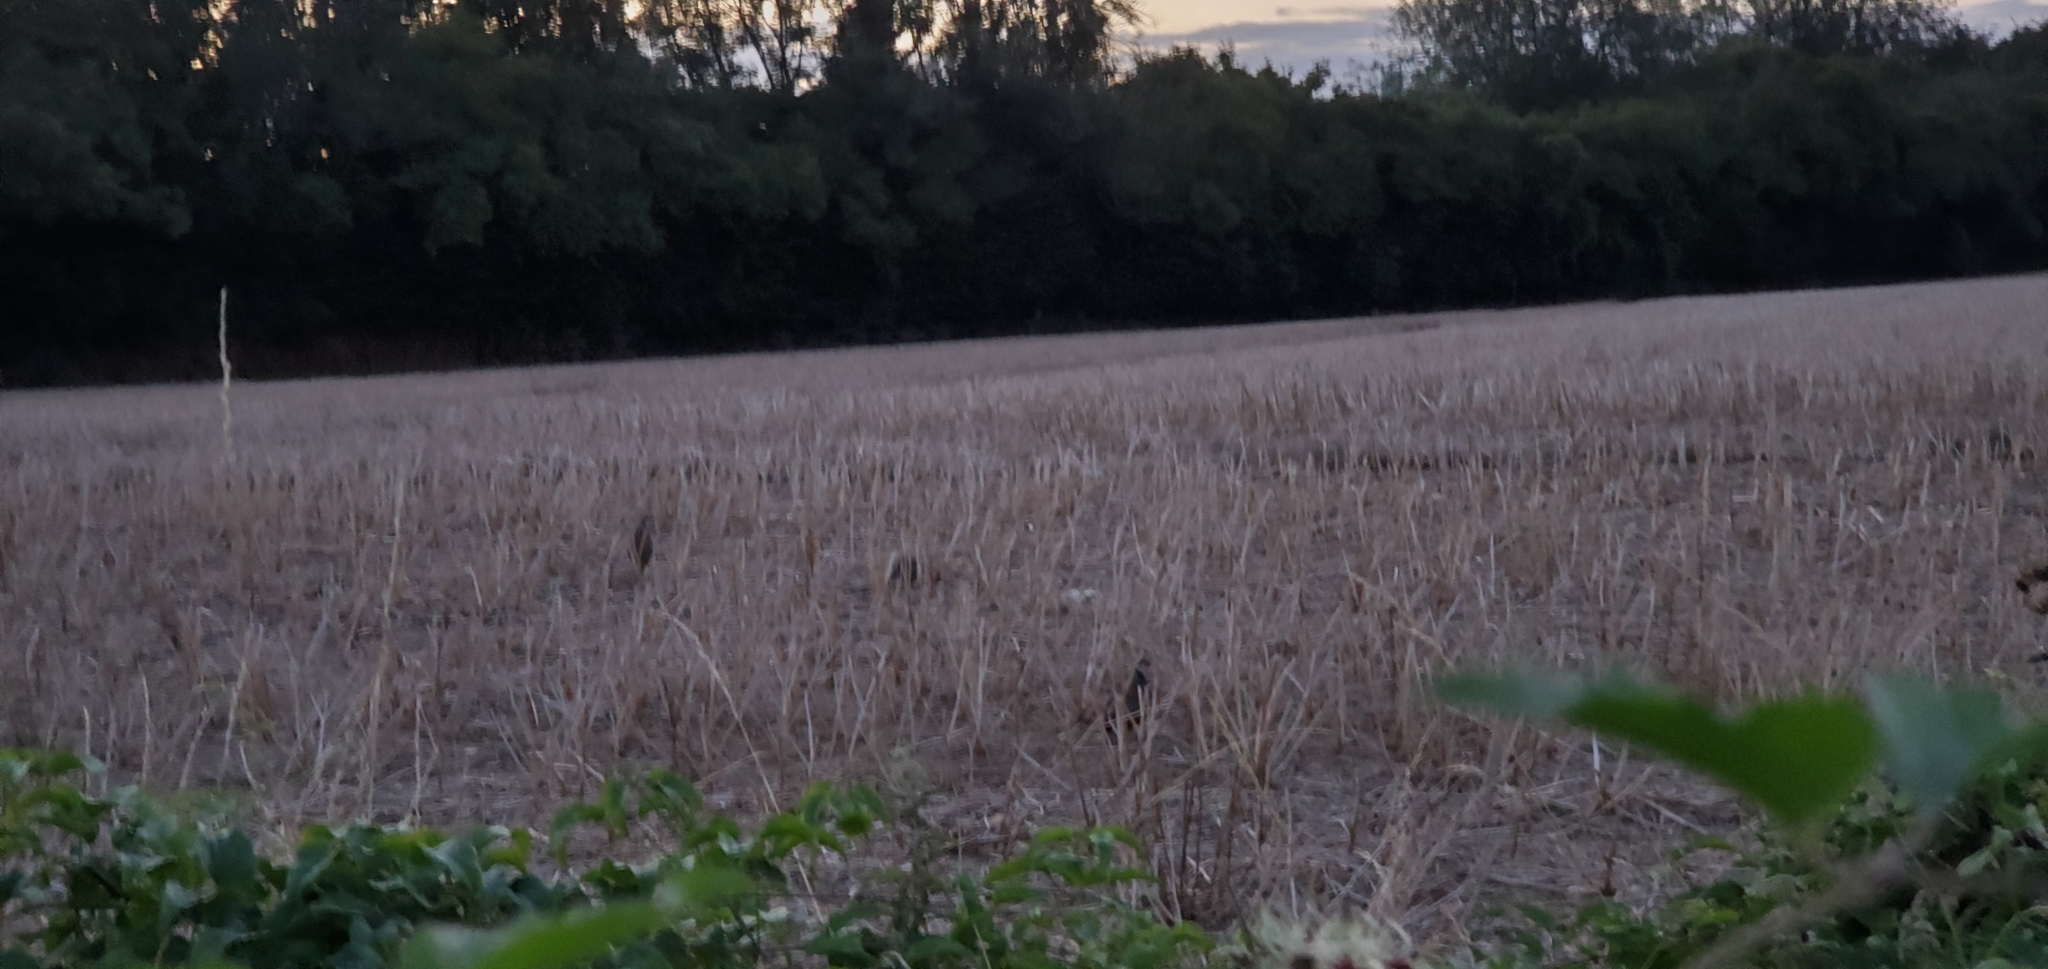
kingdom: Animalia
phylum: Chordata
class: Aves
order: Galliformes
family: Phasianidae
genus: Alectoris
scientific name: Alectoris rufa
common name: Red-legged partridge
